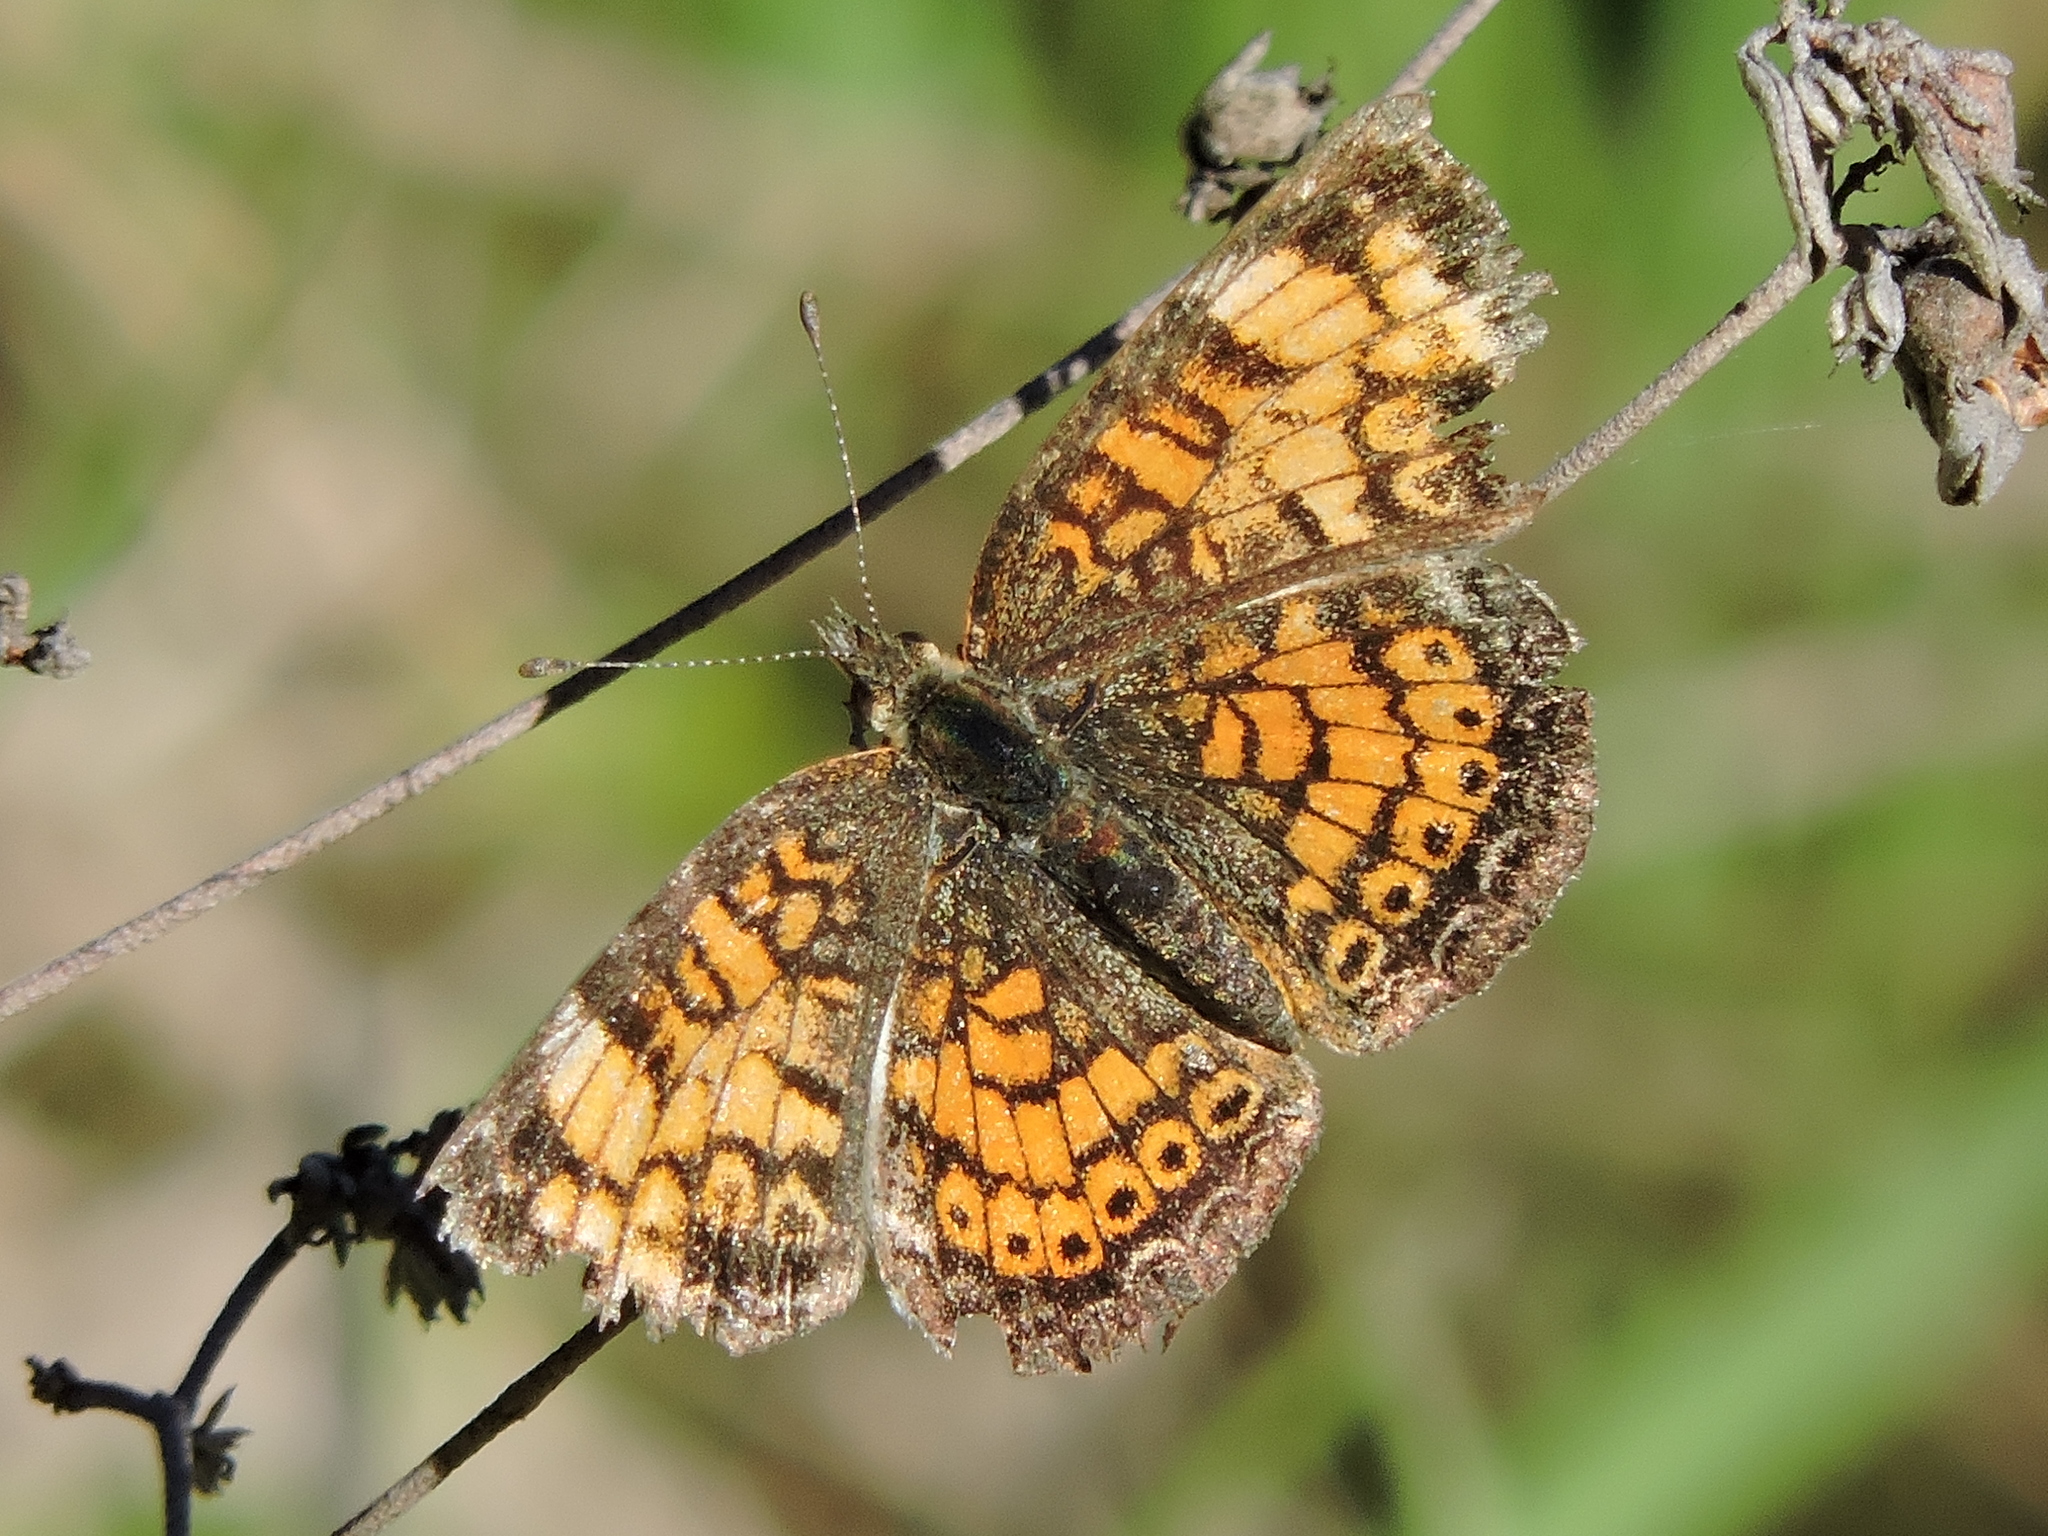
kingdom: Animalia
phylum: Arthropoda
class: Insecta
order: Lepidoptera
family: Nymphalidae
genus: Phyciodes
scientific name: Phyciodes tharos
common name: Pearl crescent
